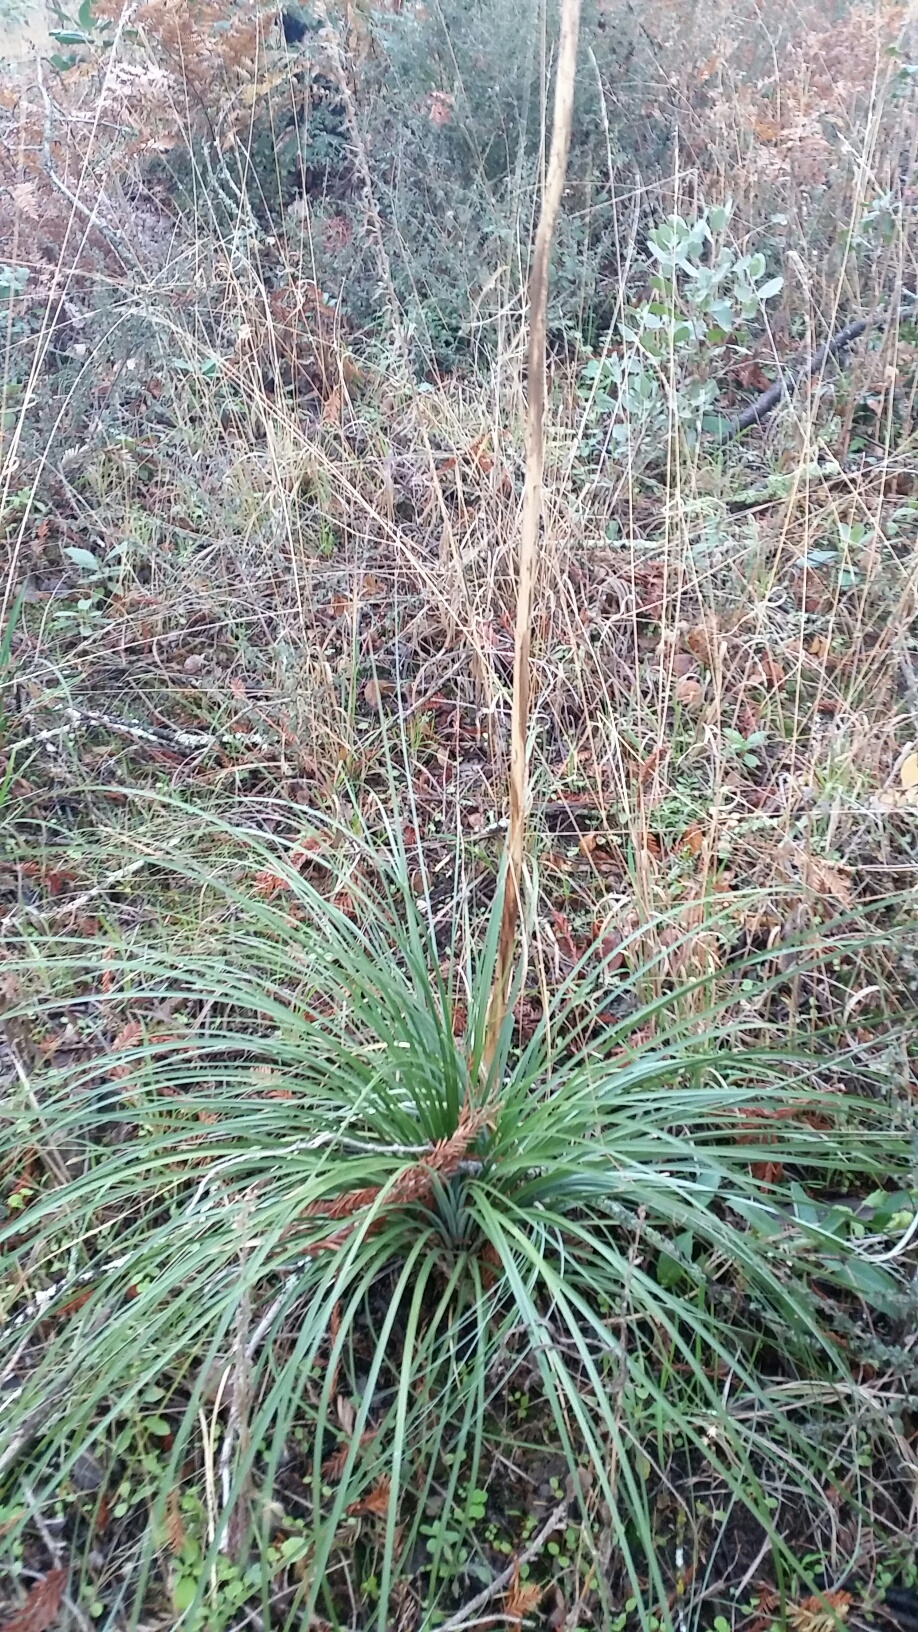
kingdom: Plantae
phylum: Tracheophyta
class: Liliopsida
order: Liliales
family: Melanthiaceae
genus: Xerophyllum
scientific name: Xerophyllum tenax
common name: Bear-grass
